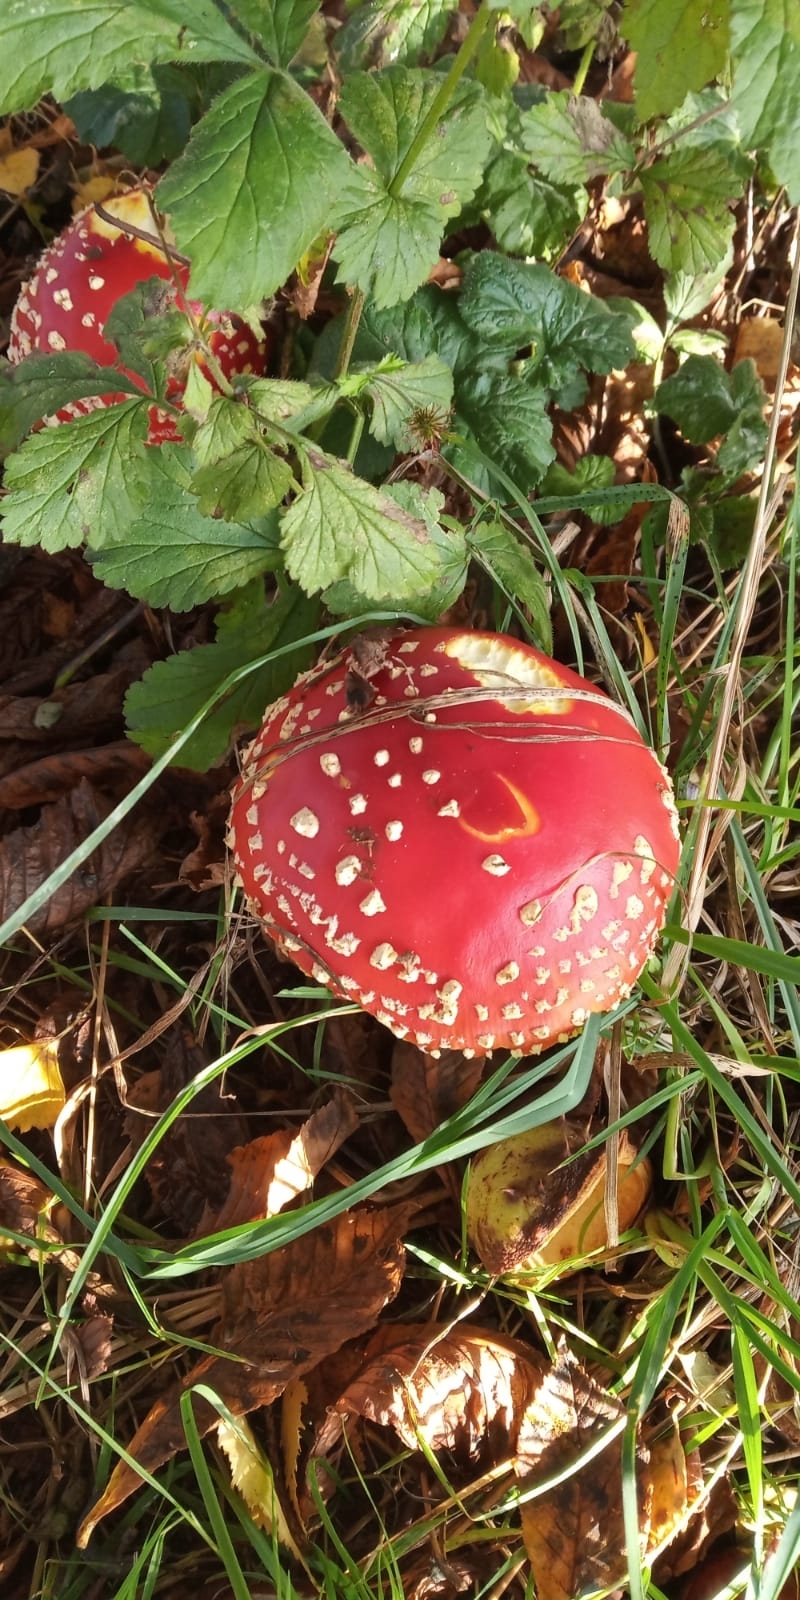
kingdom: Fungi
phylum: Basidiomycota
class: Agaricomycetes
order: Agaricales
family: Amanitaceae
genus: Amanita
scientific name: Amanita muscaria
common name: Fly agaric
